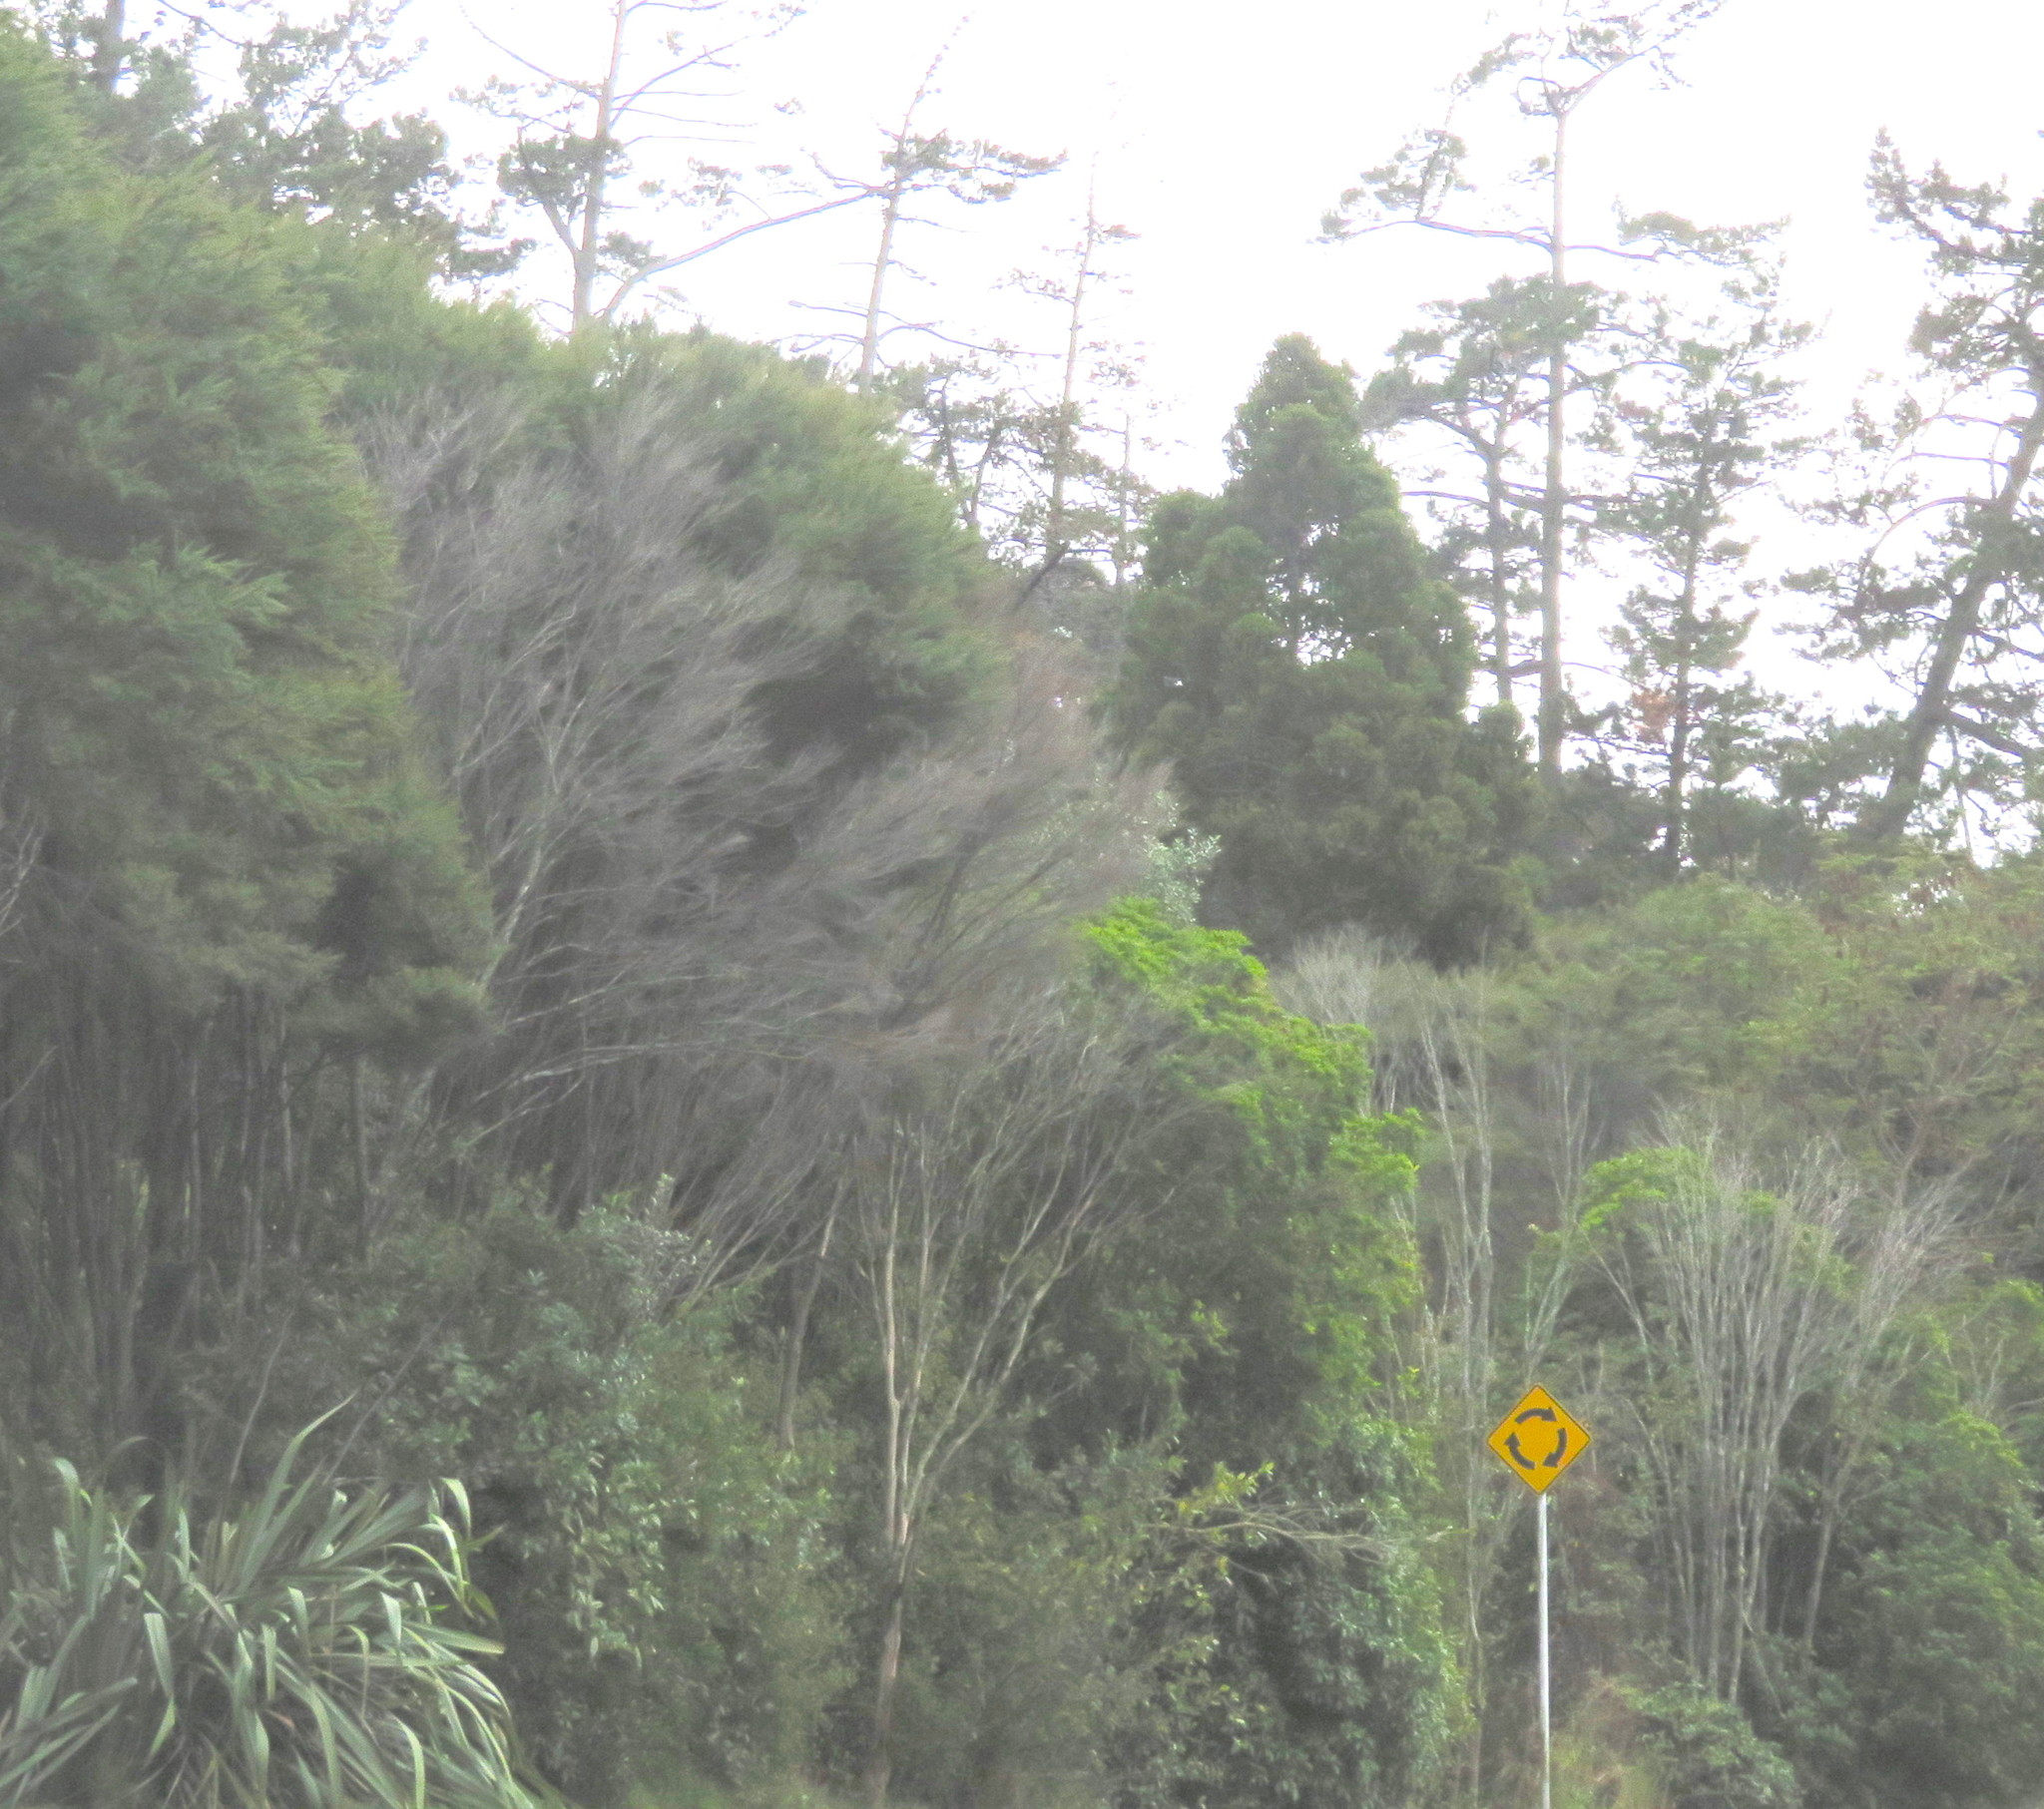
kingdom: Plantae
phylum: Tracheophyta
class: Pinopsida
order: Pinales
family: Araucariaceae
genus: Agathis
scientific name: Agathis australis
